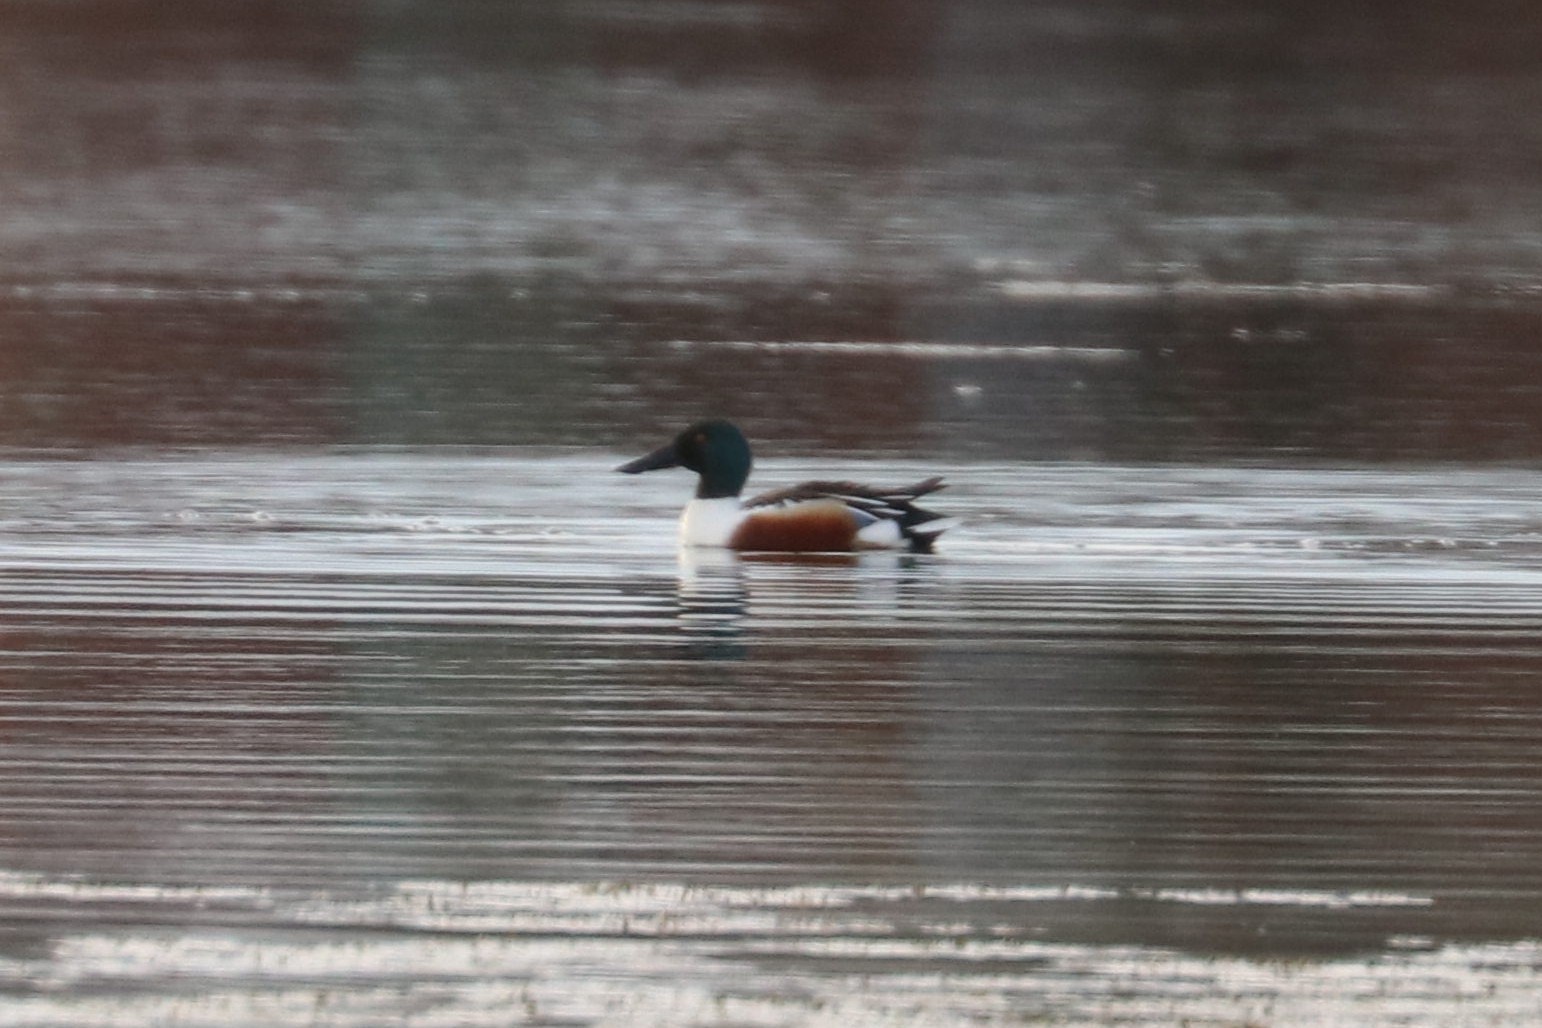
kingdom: Animalia
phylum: Chordata
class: Aves
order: Anseriformes
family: Anatidae
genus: Spatula
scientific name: Spatula clypeata
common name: Northern shoveler
